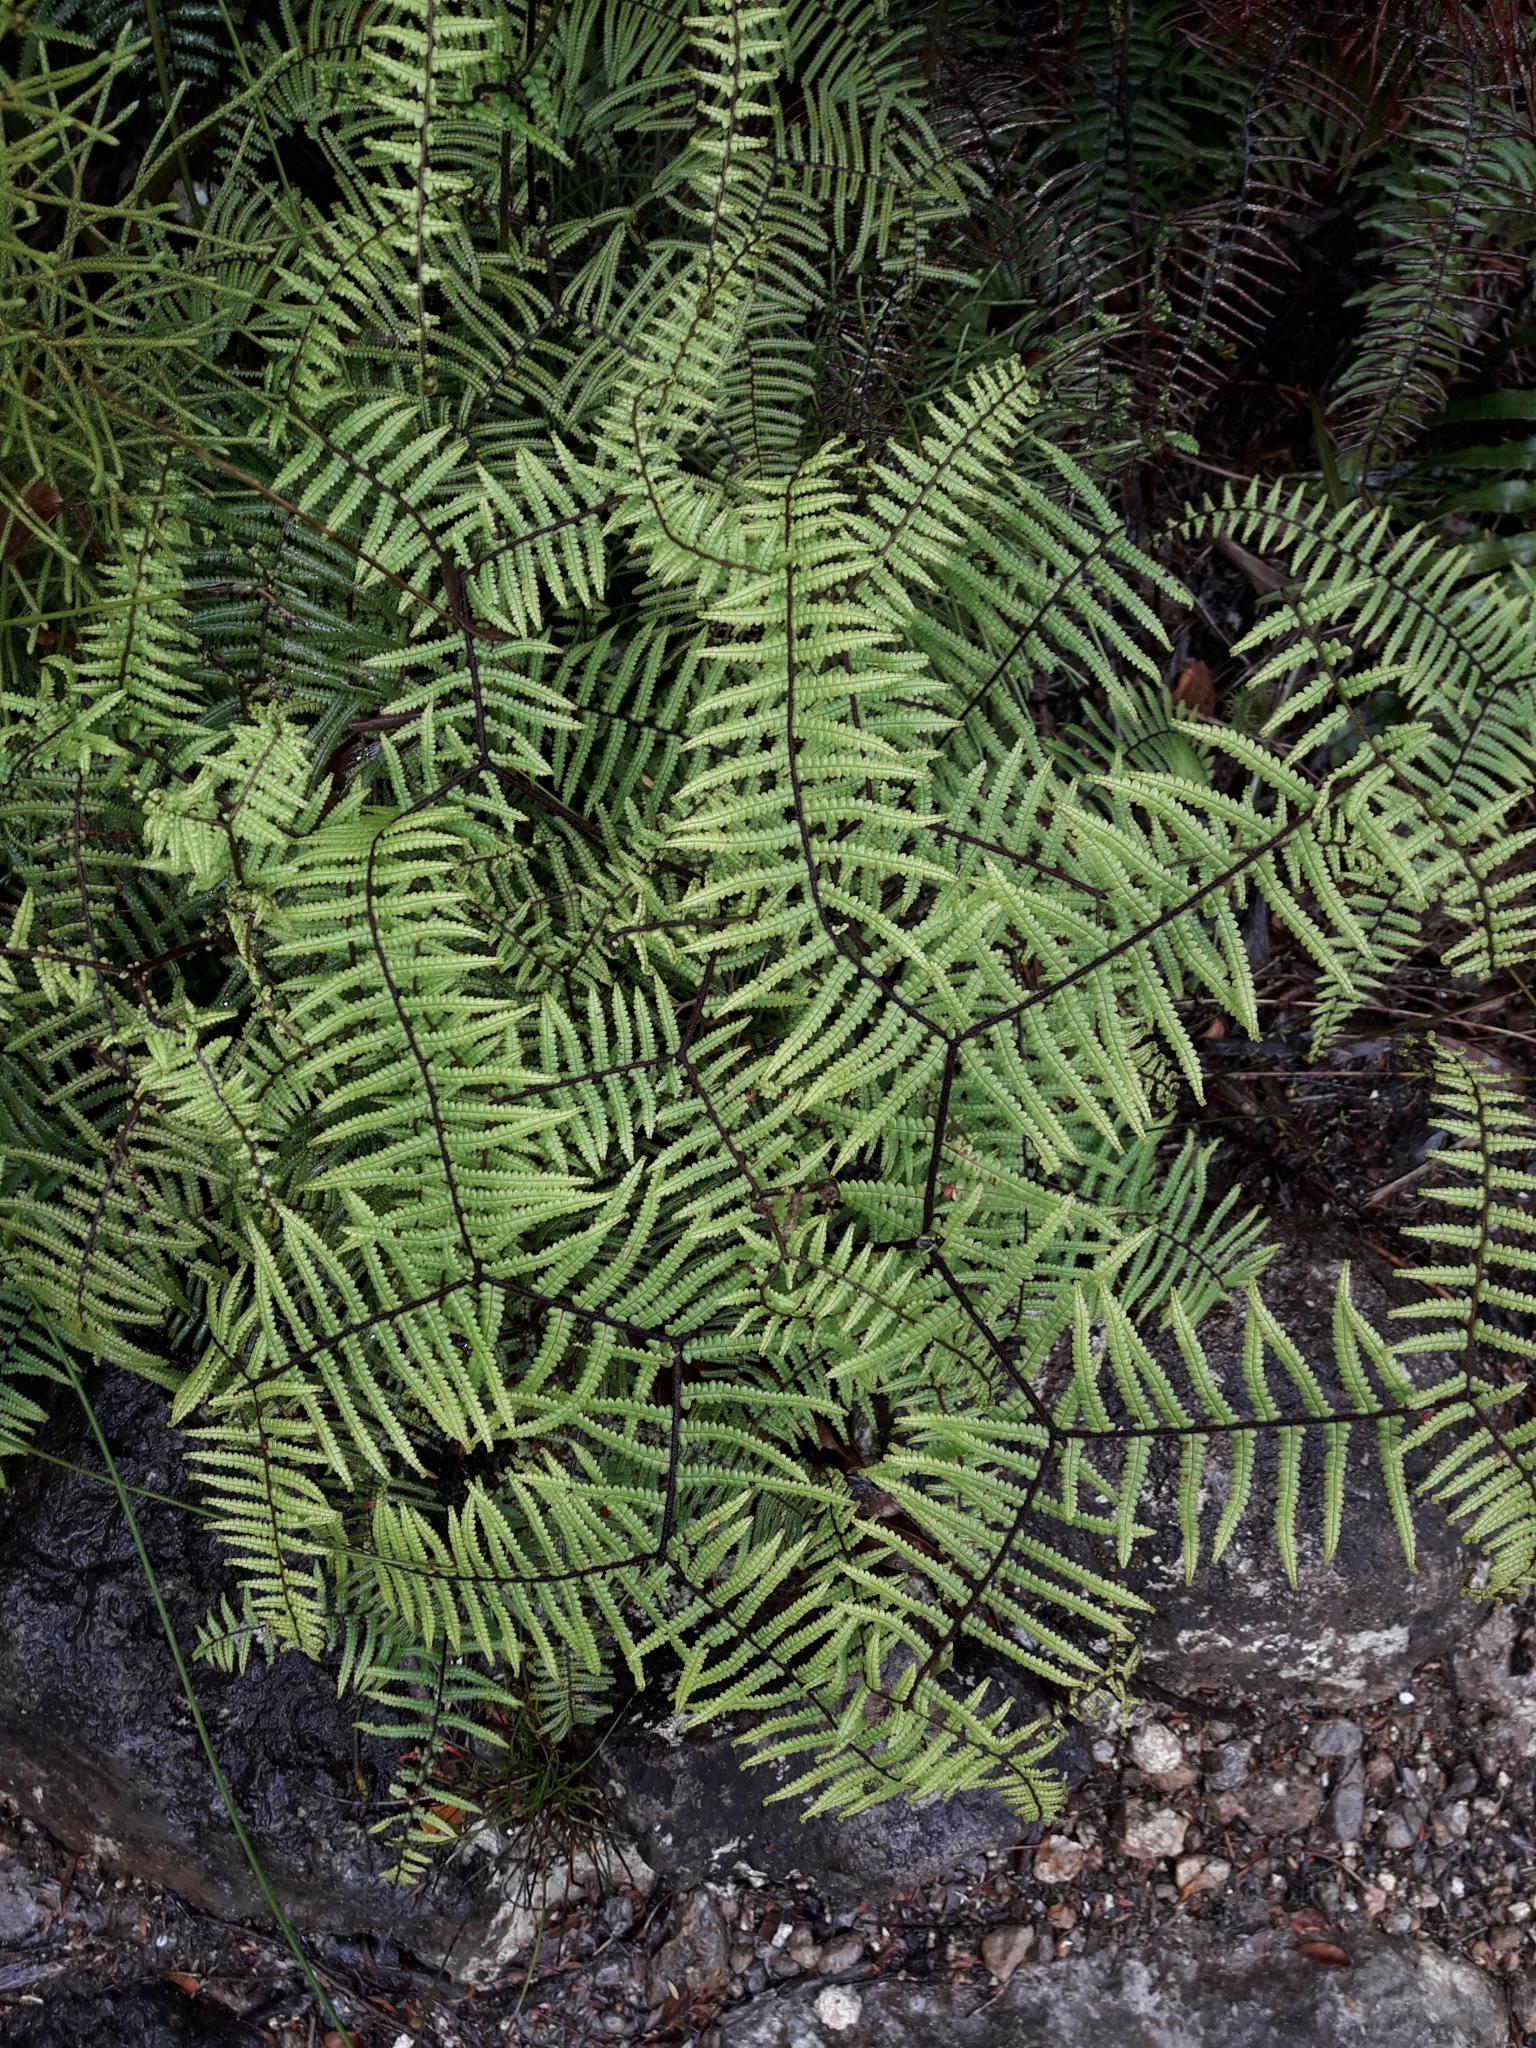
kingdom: Plantae
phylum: Tracheophyta
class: Polypodiopsida
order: Gleicheniales
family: Gleicheniaceae
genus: Gleichenia
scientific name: Gleichenia microphylla
